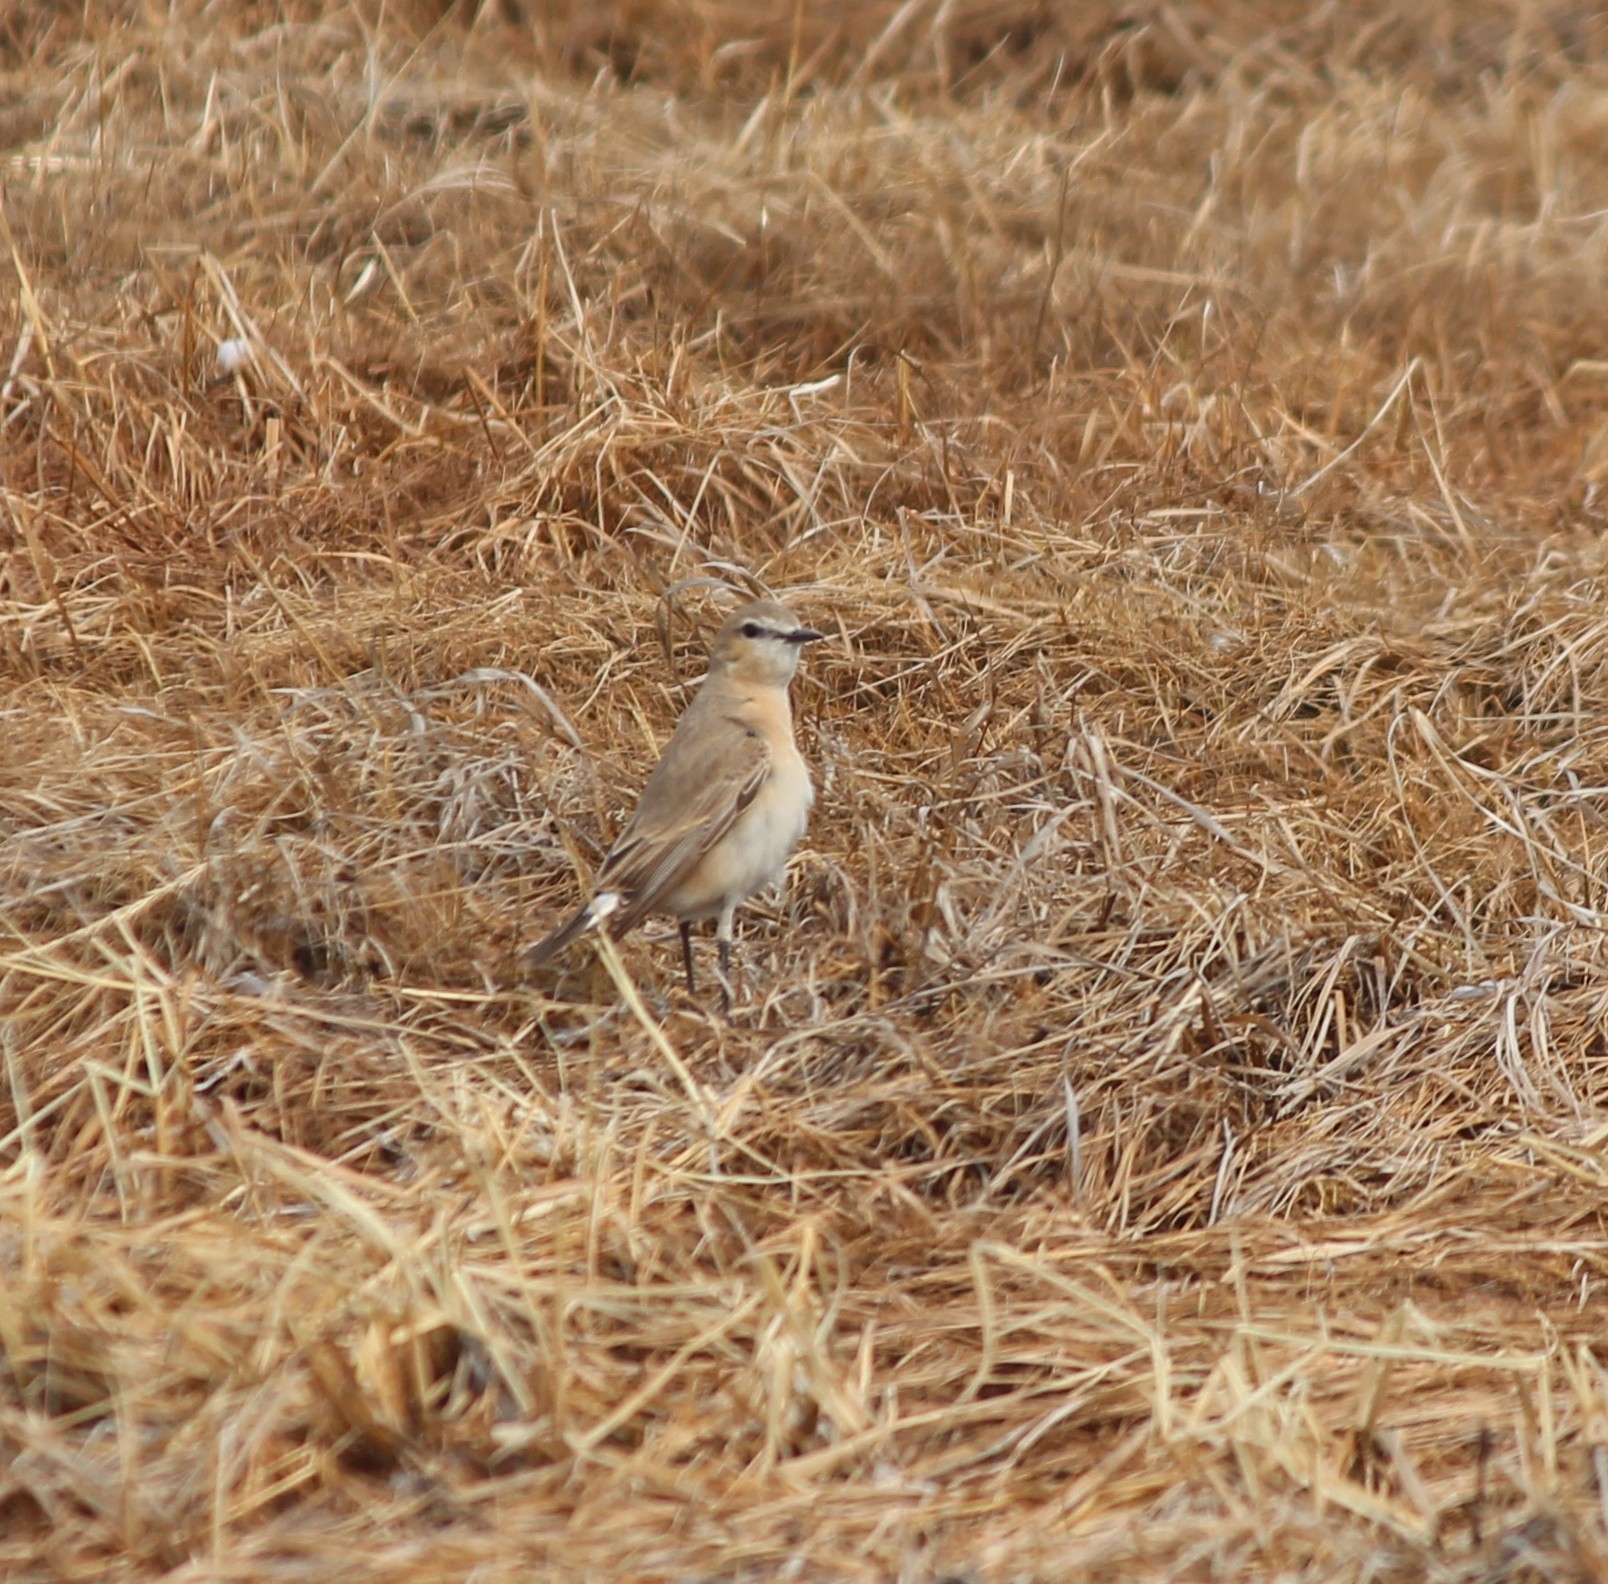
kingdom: Animalia
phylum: Chordata
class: Aves
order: Passeriformes
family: Muscicapidae
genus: Oenanthe
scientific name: Oenanthe isabellina
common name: Isabelline wheatear
